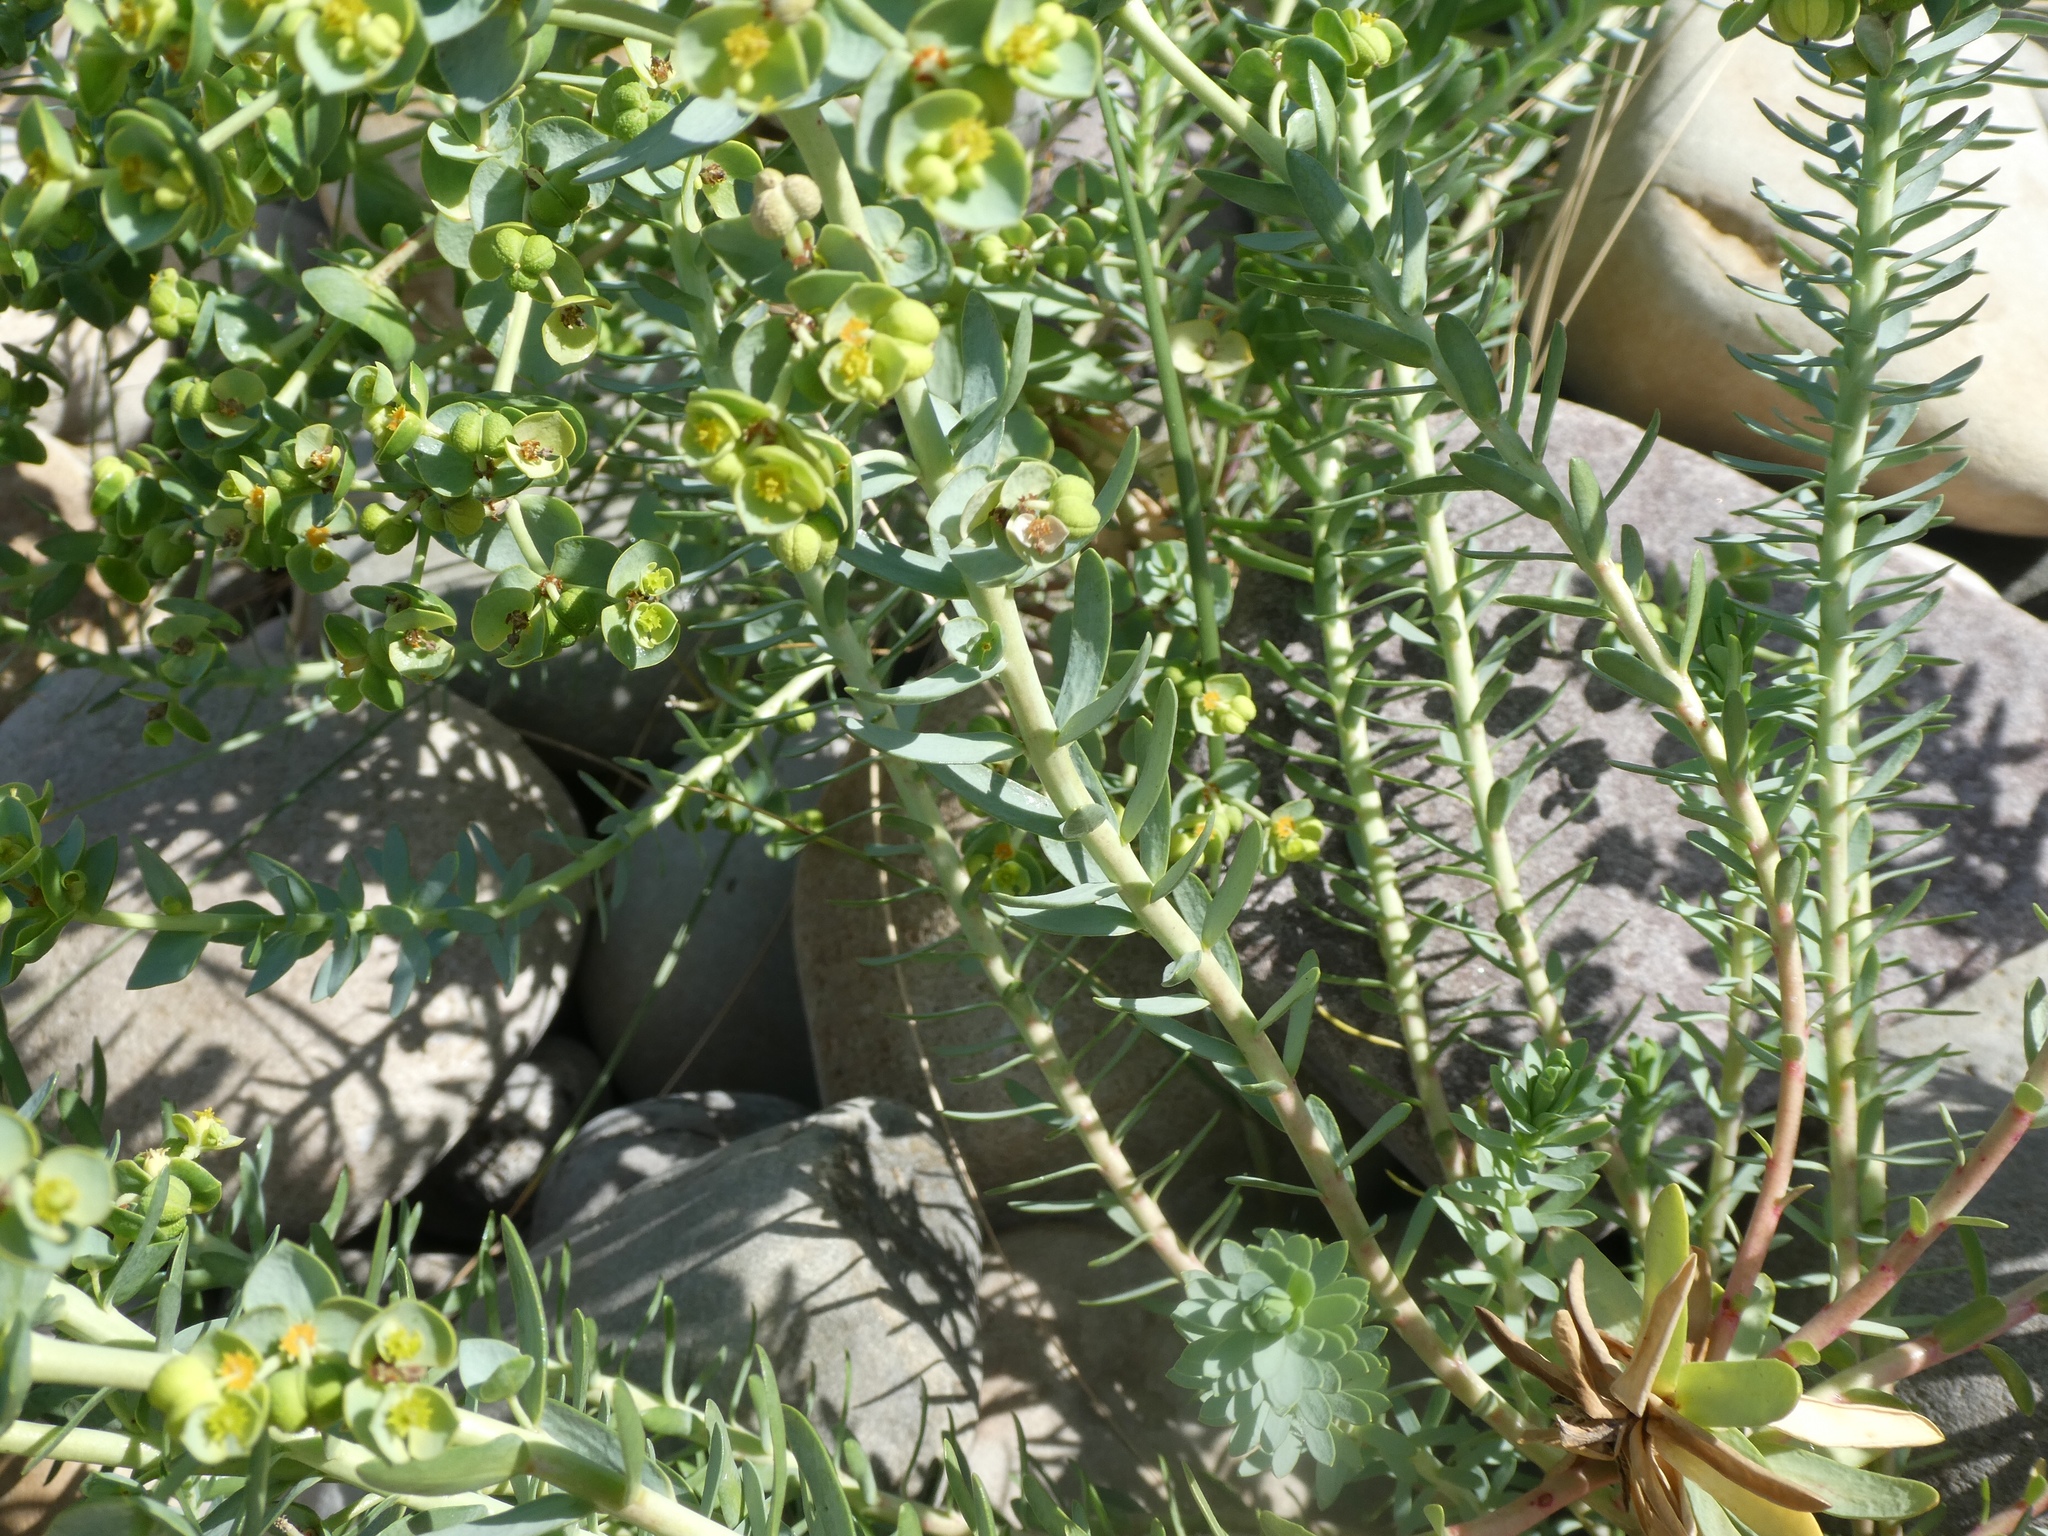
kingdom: Plantae
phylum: Tracheophyta
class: Magnoliopsida
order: Malpighiales
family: Euphorbiaceae
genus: Euphorbia
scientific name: Euphorbia paralias
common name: Sea spurge
